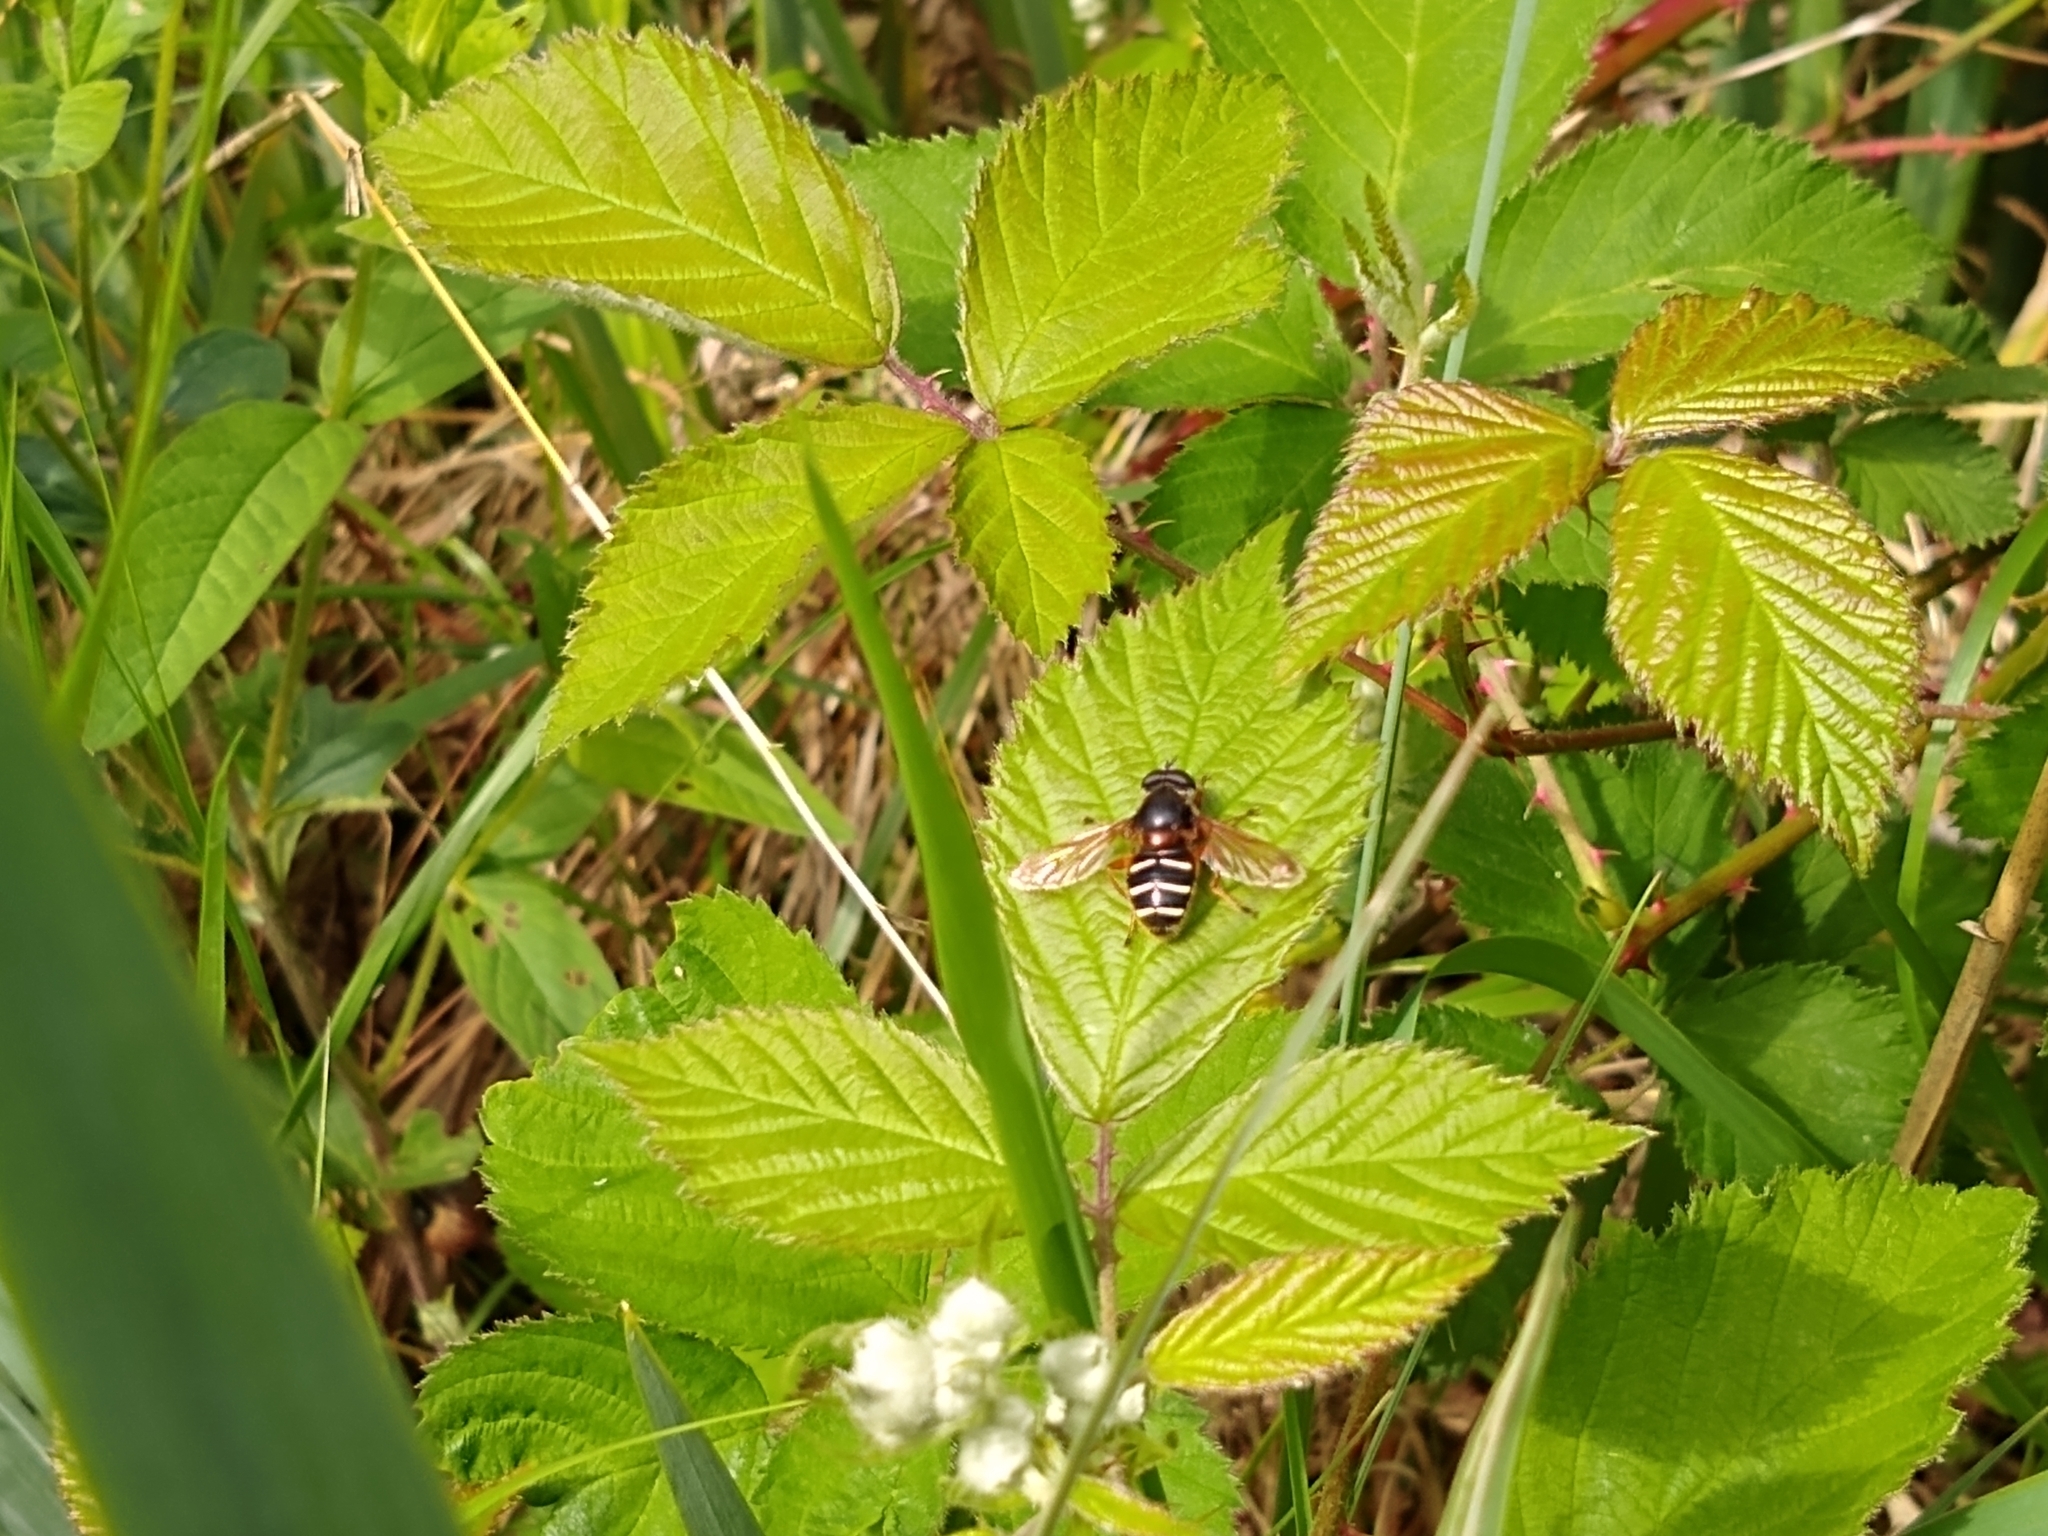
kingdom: Animalia
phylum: Arthropoda
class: Insecta
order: Diptera
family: Syrphidae
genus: Sericomyia
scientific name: Sericomyia lappona
